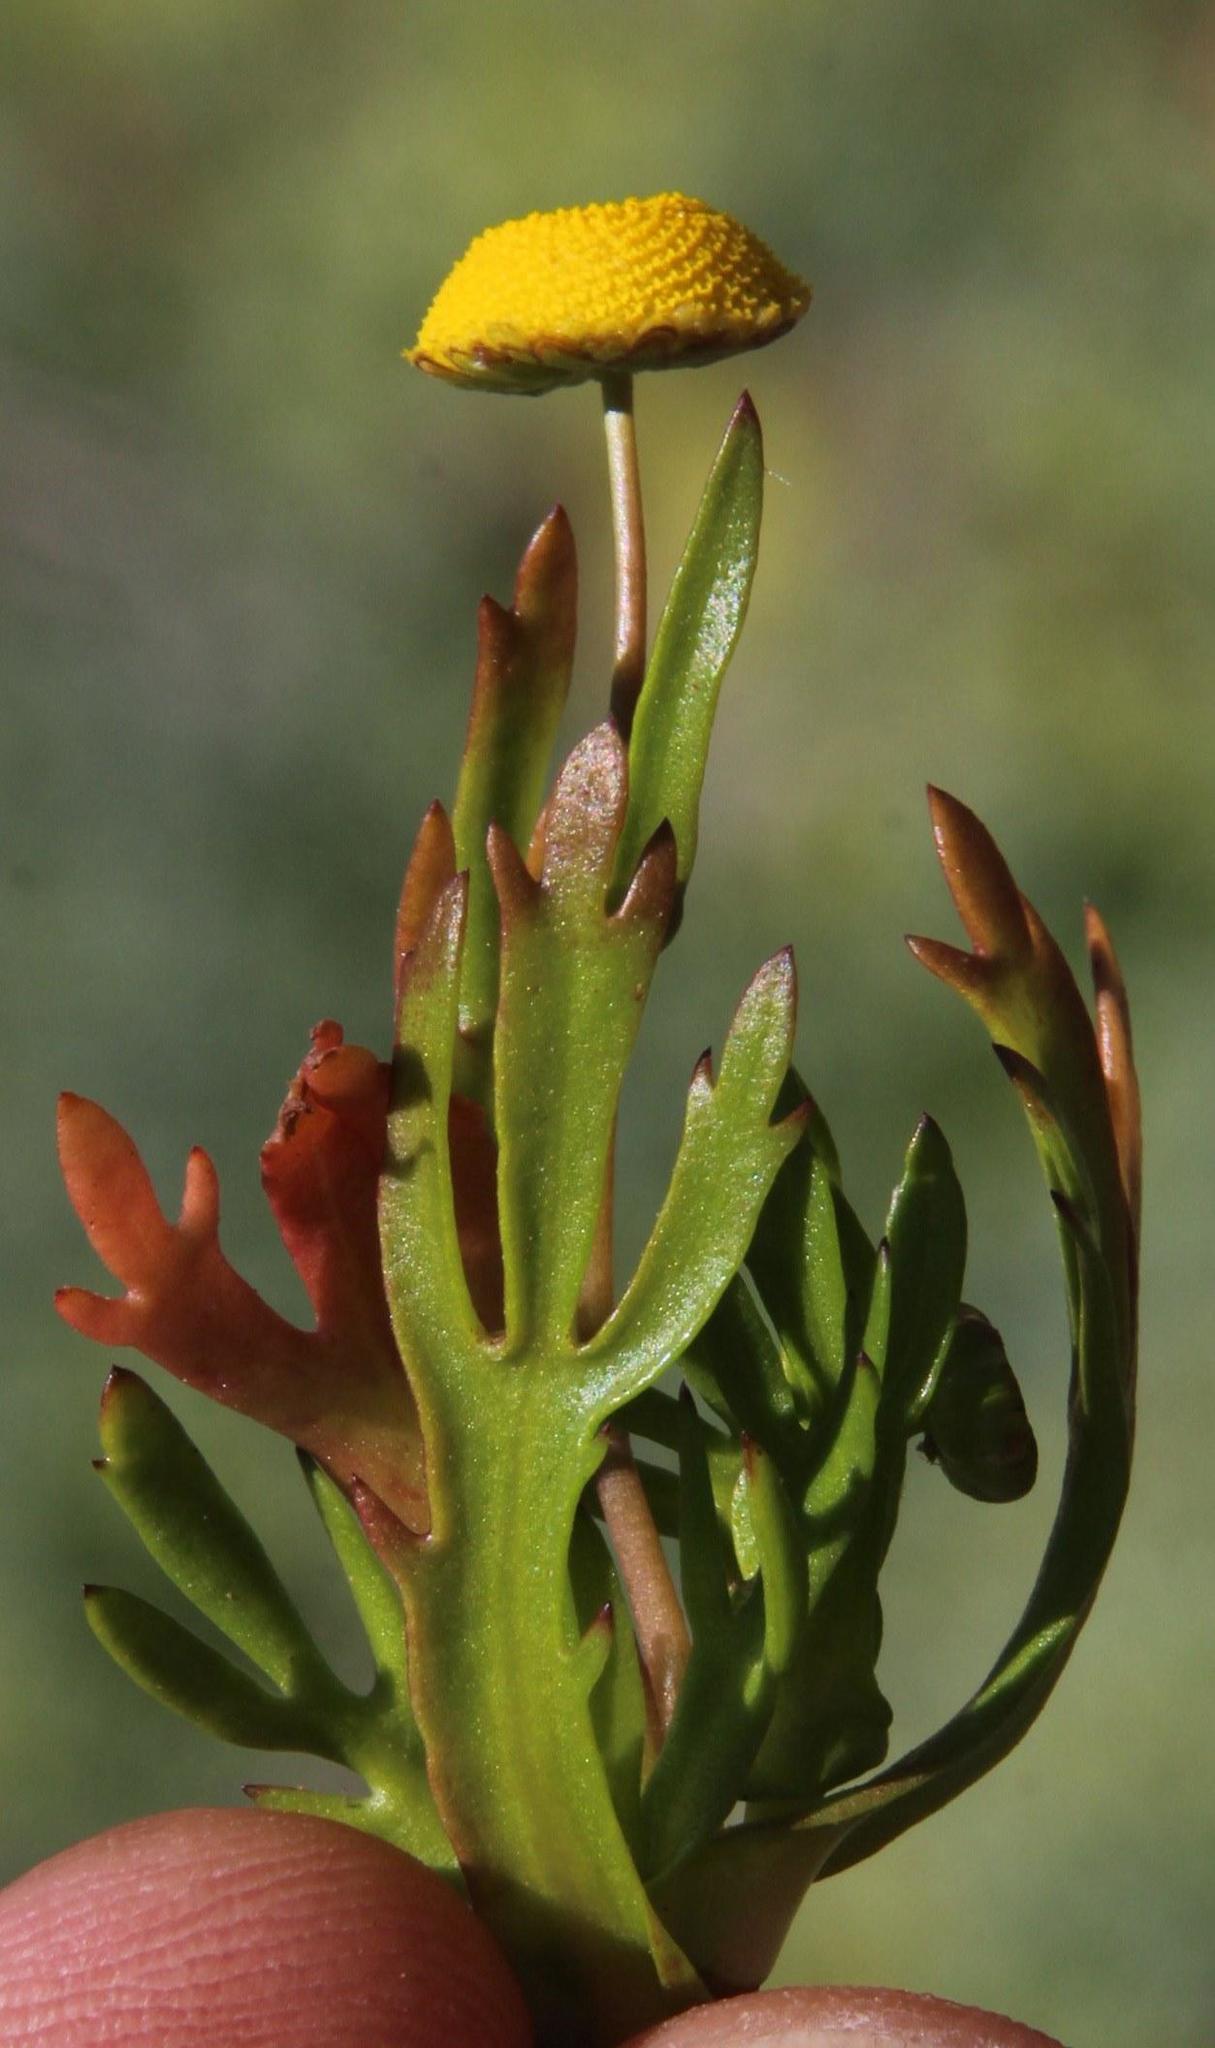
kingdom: Plantae
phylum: Tracheophyta
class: Magnoliopsida
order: Asterales
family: Asteraceae
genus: Cotula
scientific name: Cotula coronopifolia
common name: Buttonweed
